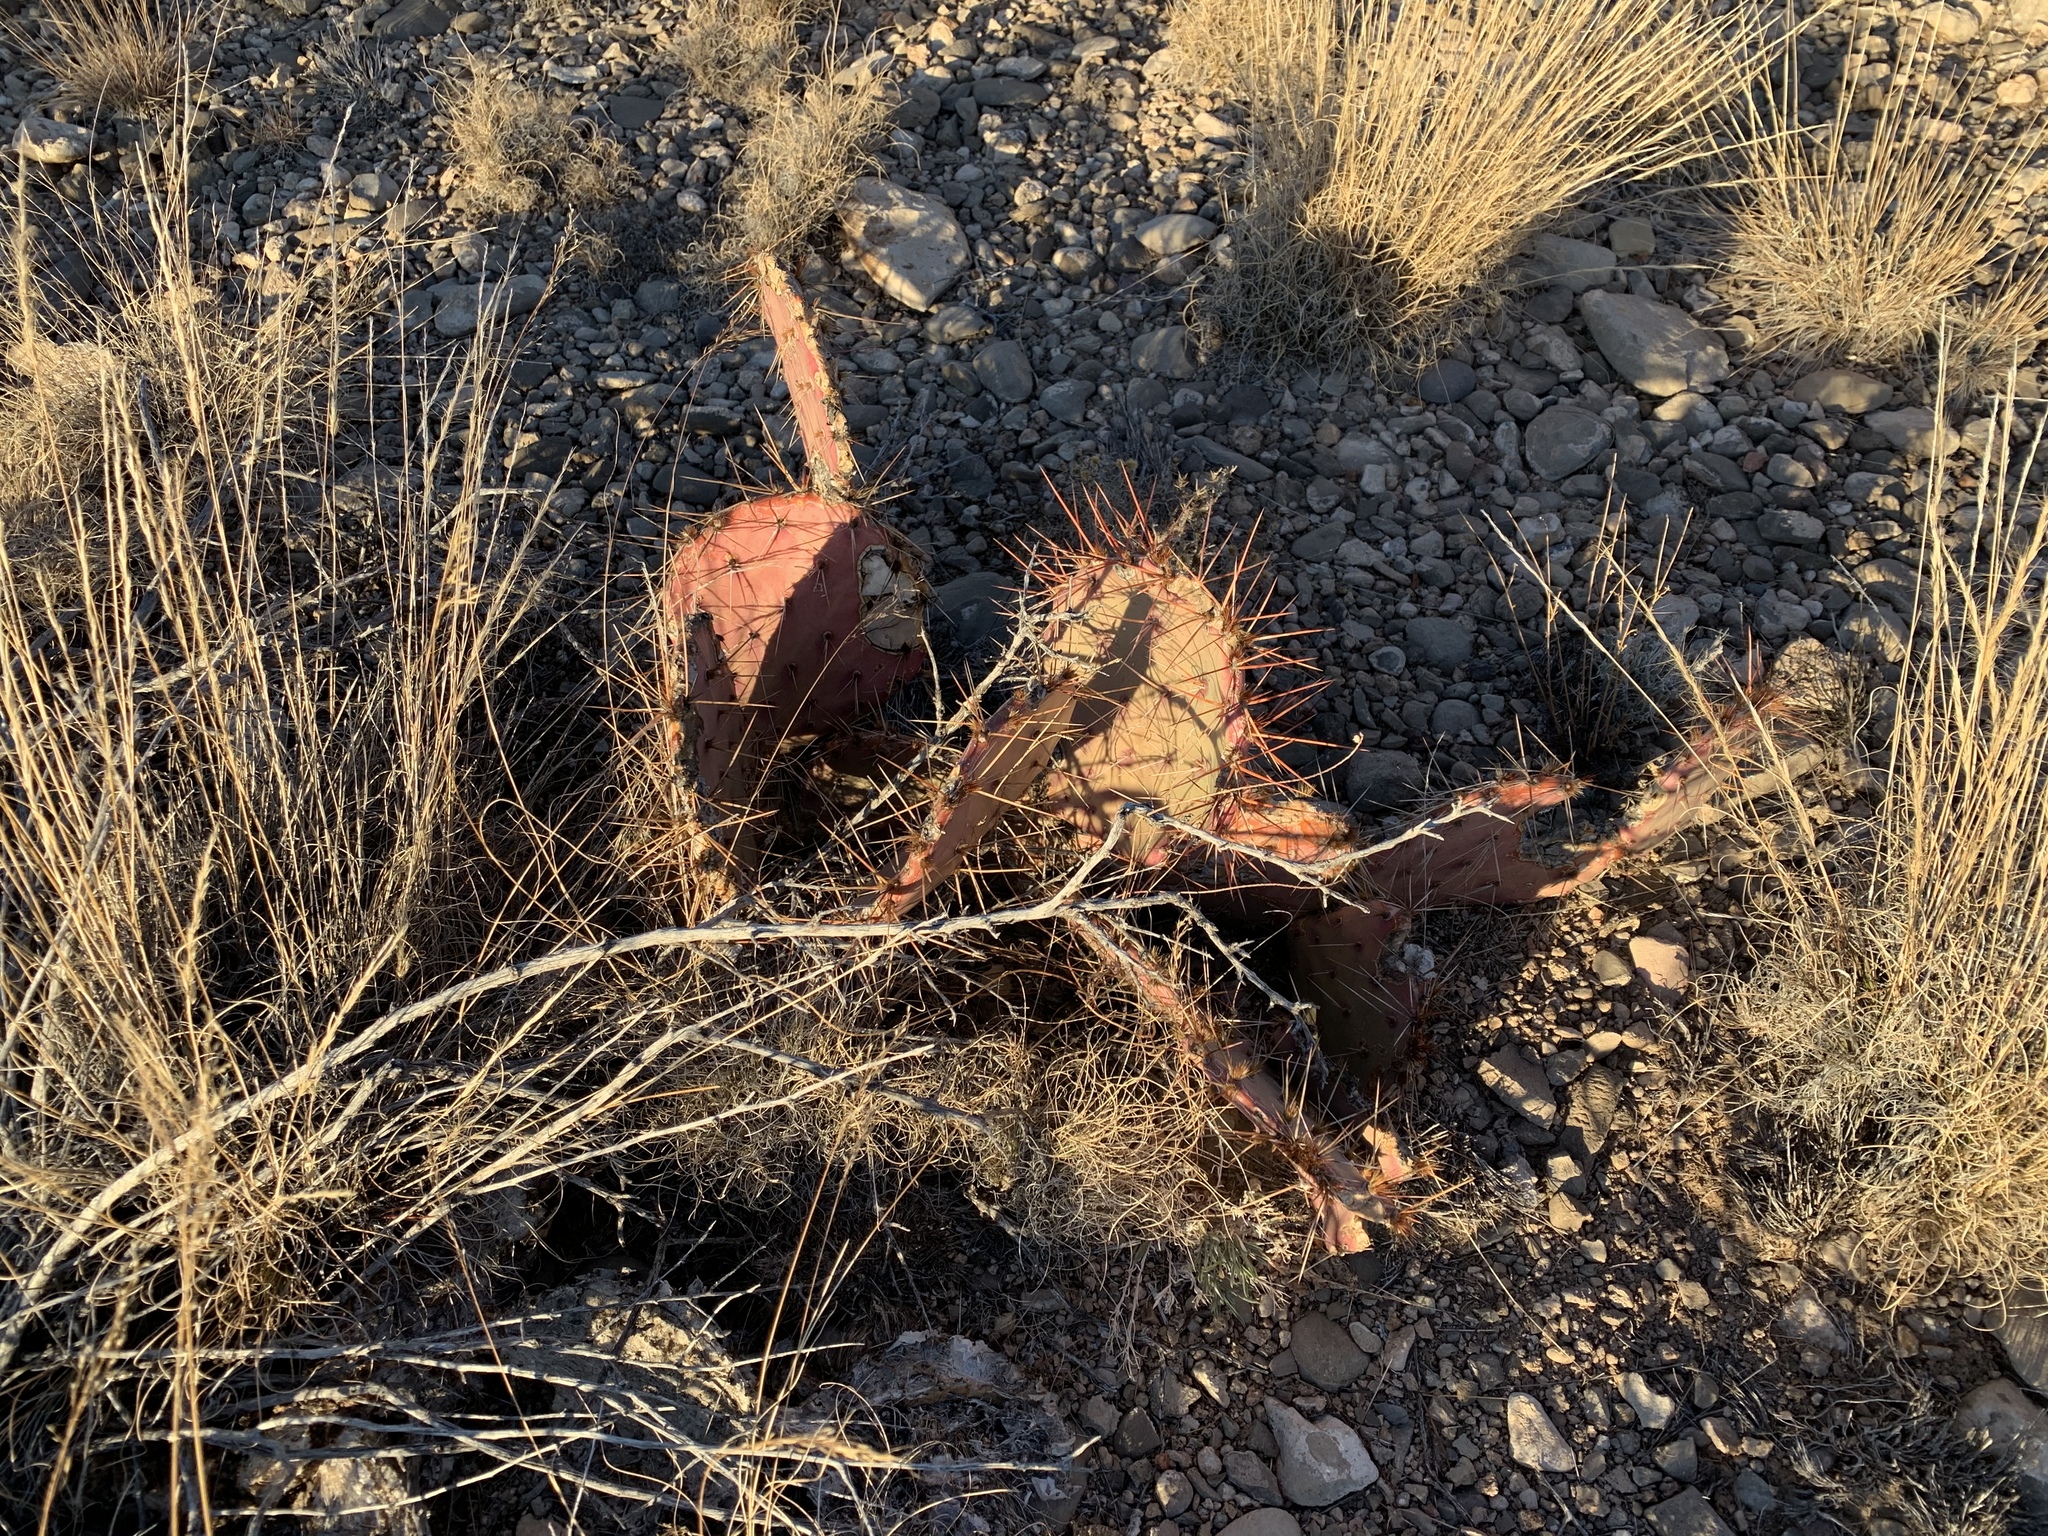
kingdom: Plantae
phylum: Tracheophyta
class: Magnoliopsida
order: Caryophyllales
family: Cactaceae
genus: Opuntia
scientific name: Opuntia macrocentra
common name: Purple prickly-pear
